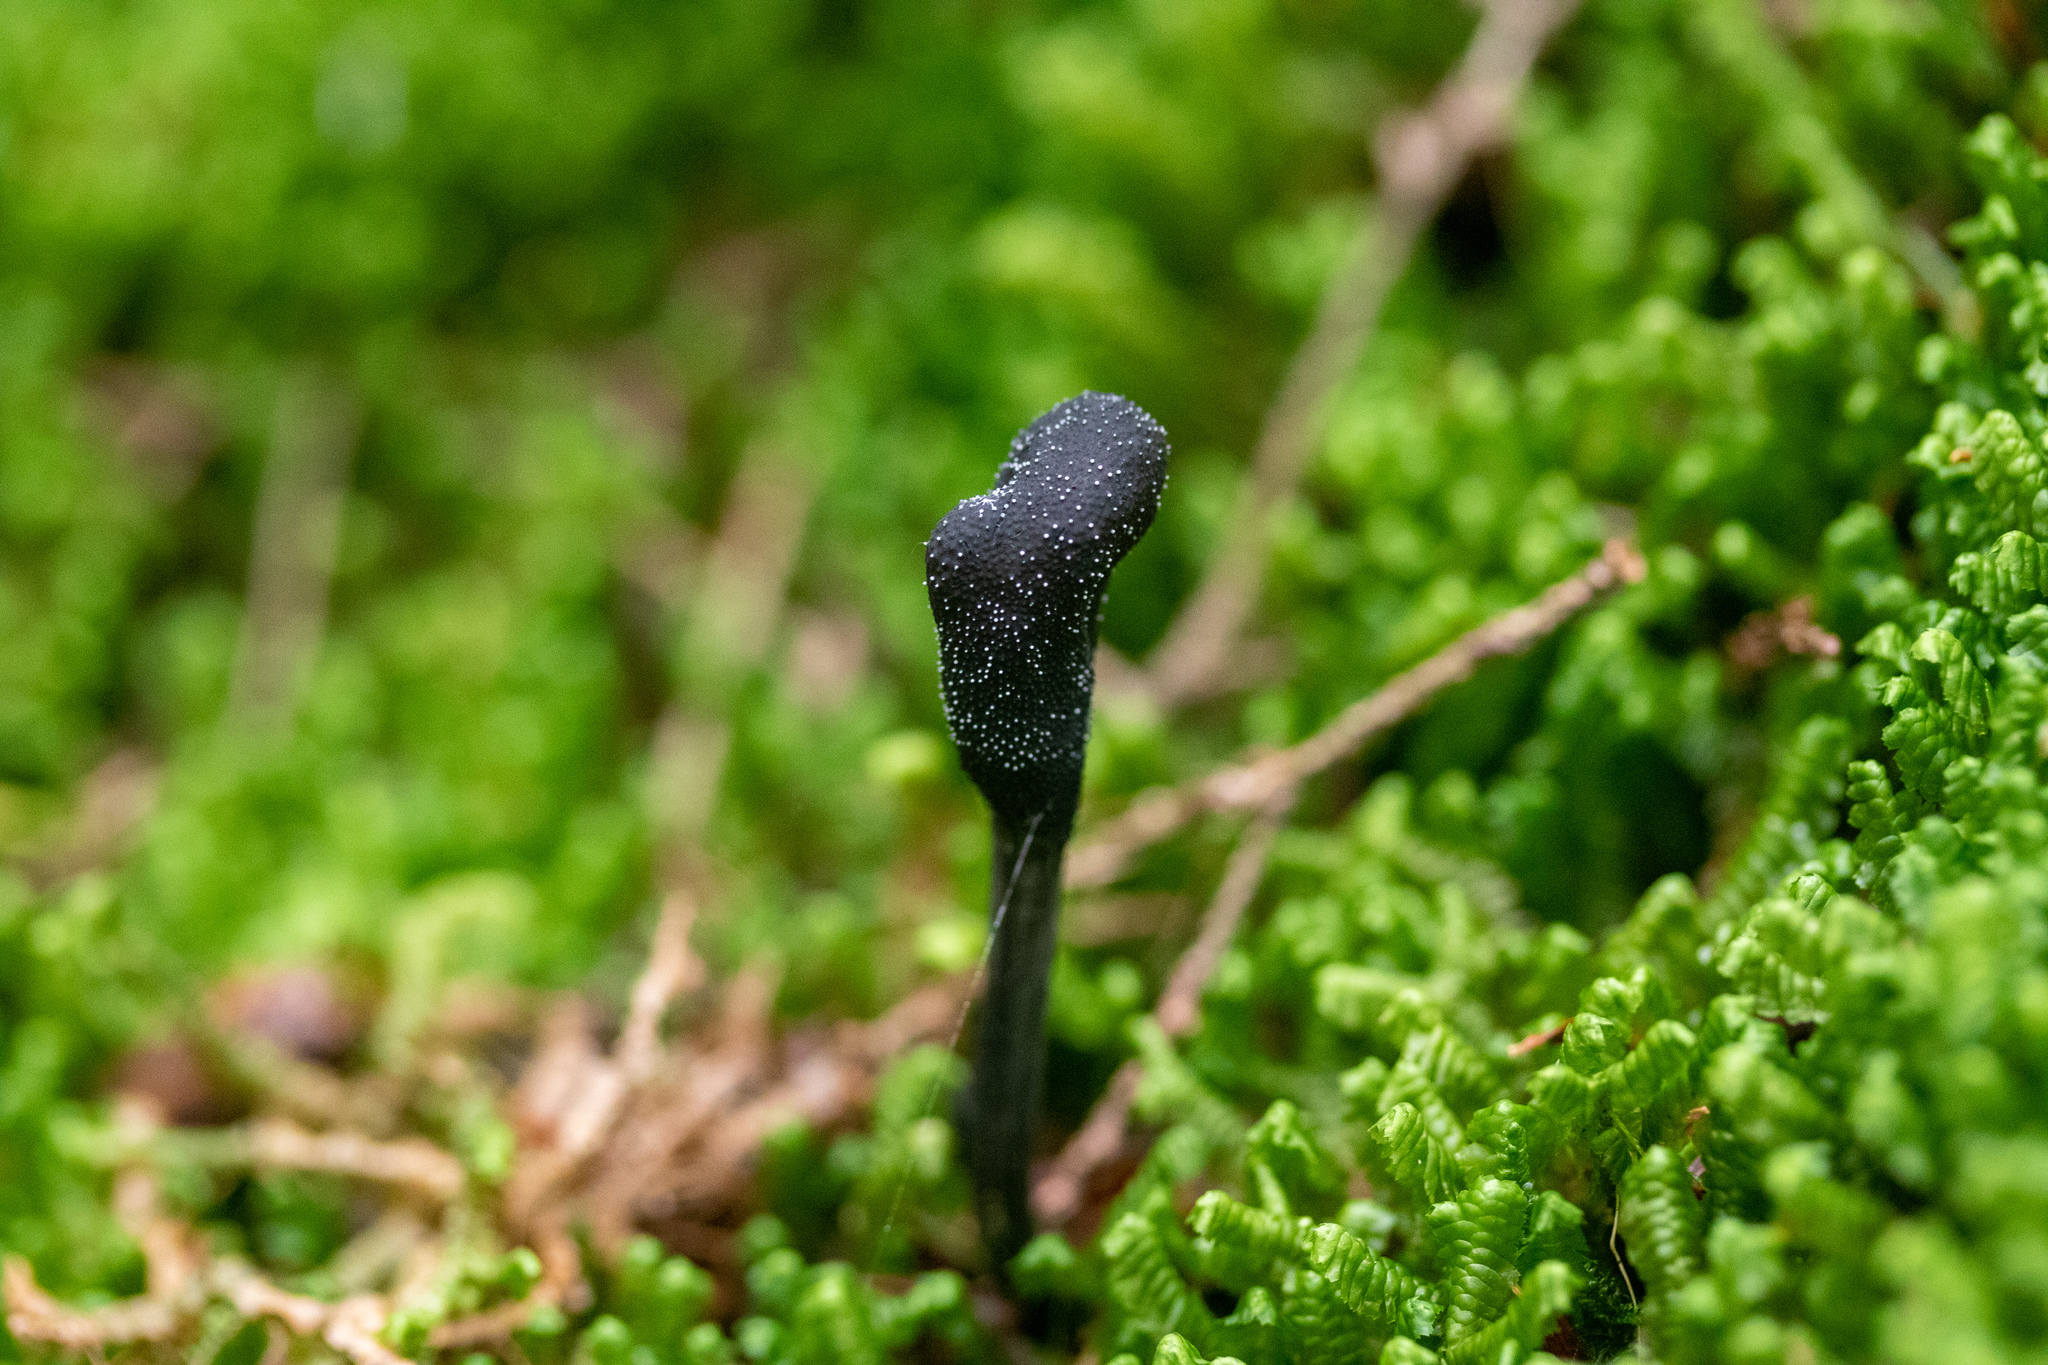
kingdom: Fungi
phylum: Ascomycota
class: Sordariomycetes
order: Hypocreales
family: Ophiocordycipitaceae
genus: Tolypocladium
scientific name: Tolypocladium ophioglossoides
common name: Snaketongue truffleclub
